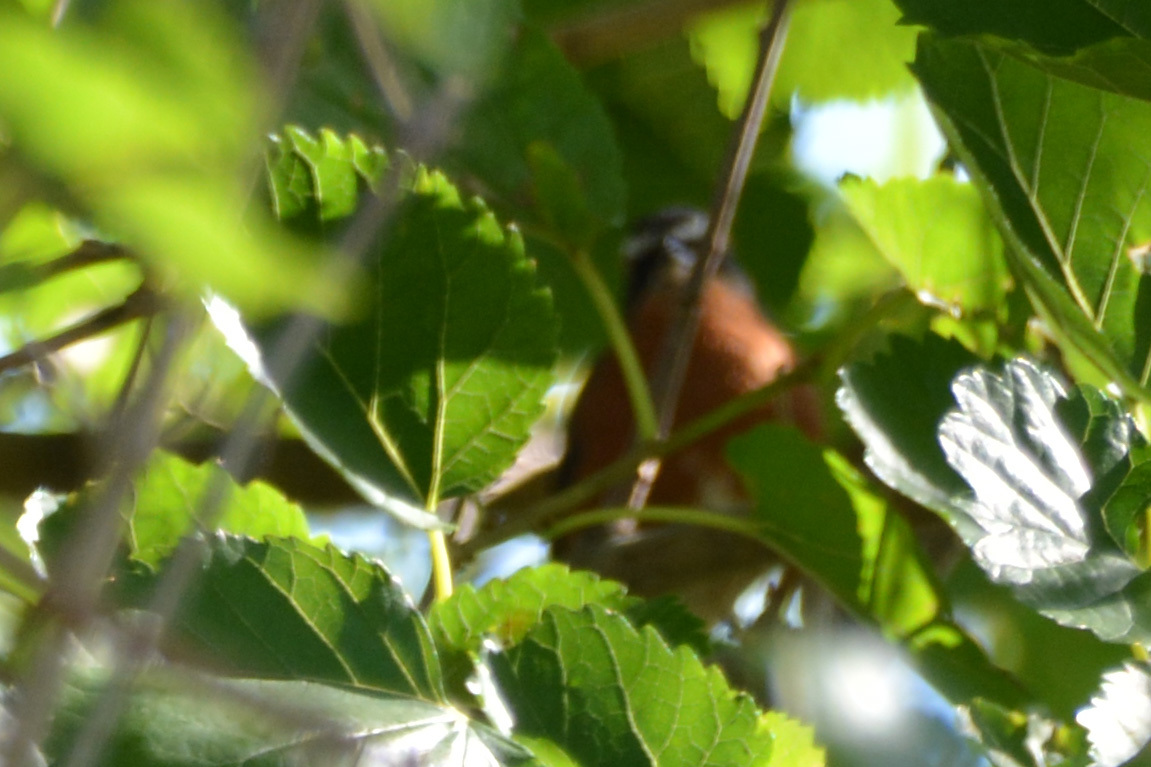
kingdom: Animalia
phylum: Chordata
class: Aves
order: Passeriformes
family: Thraupidae
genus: Poospiza
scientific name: Poospiza nigrorufa
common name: Black-and-rufous warbling finch
